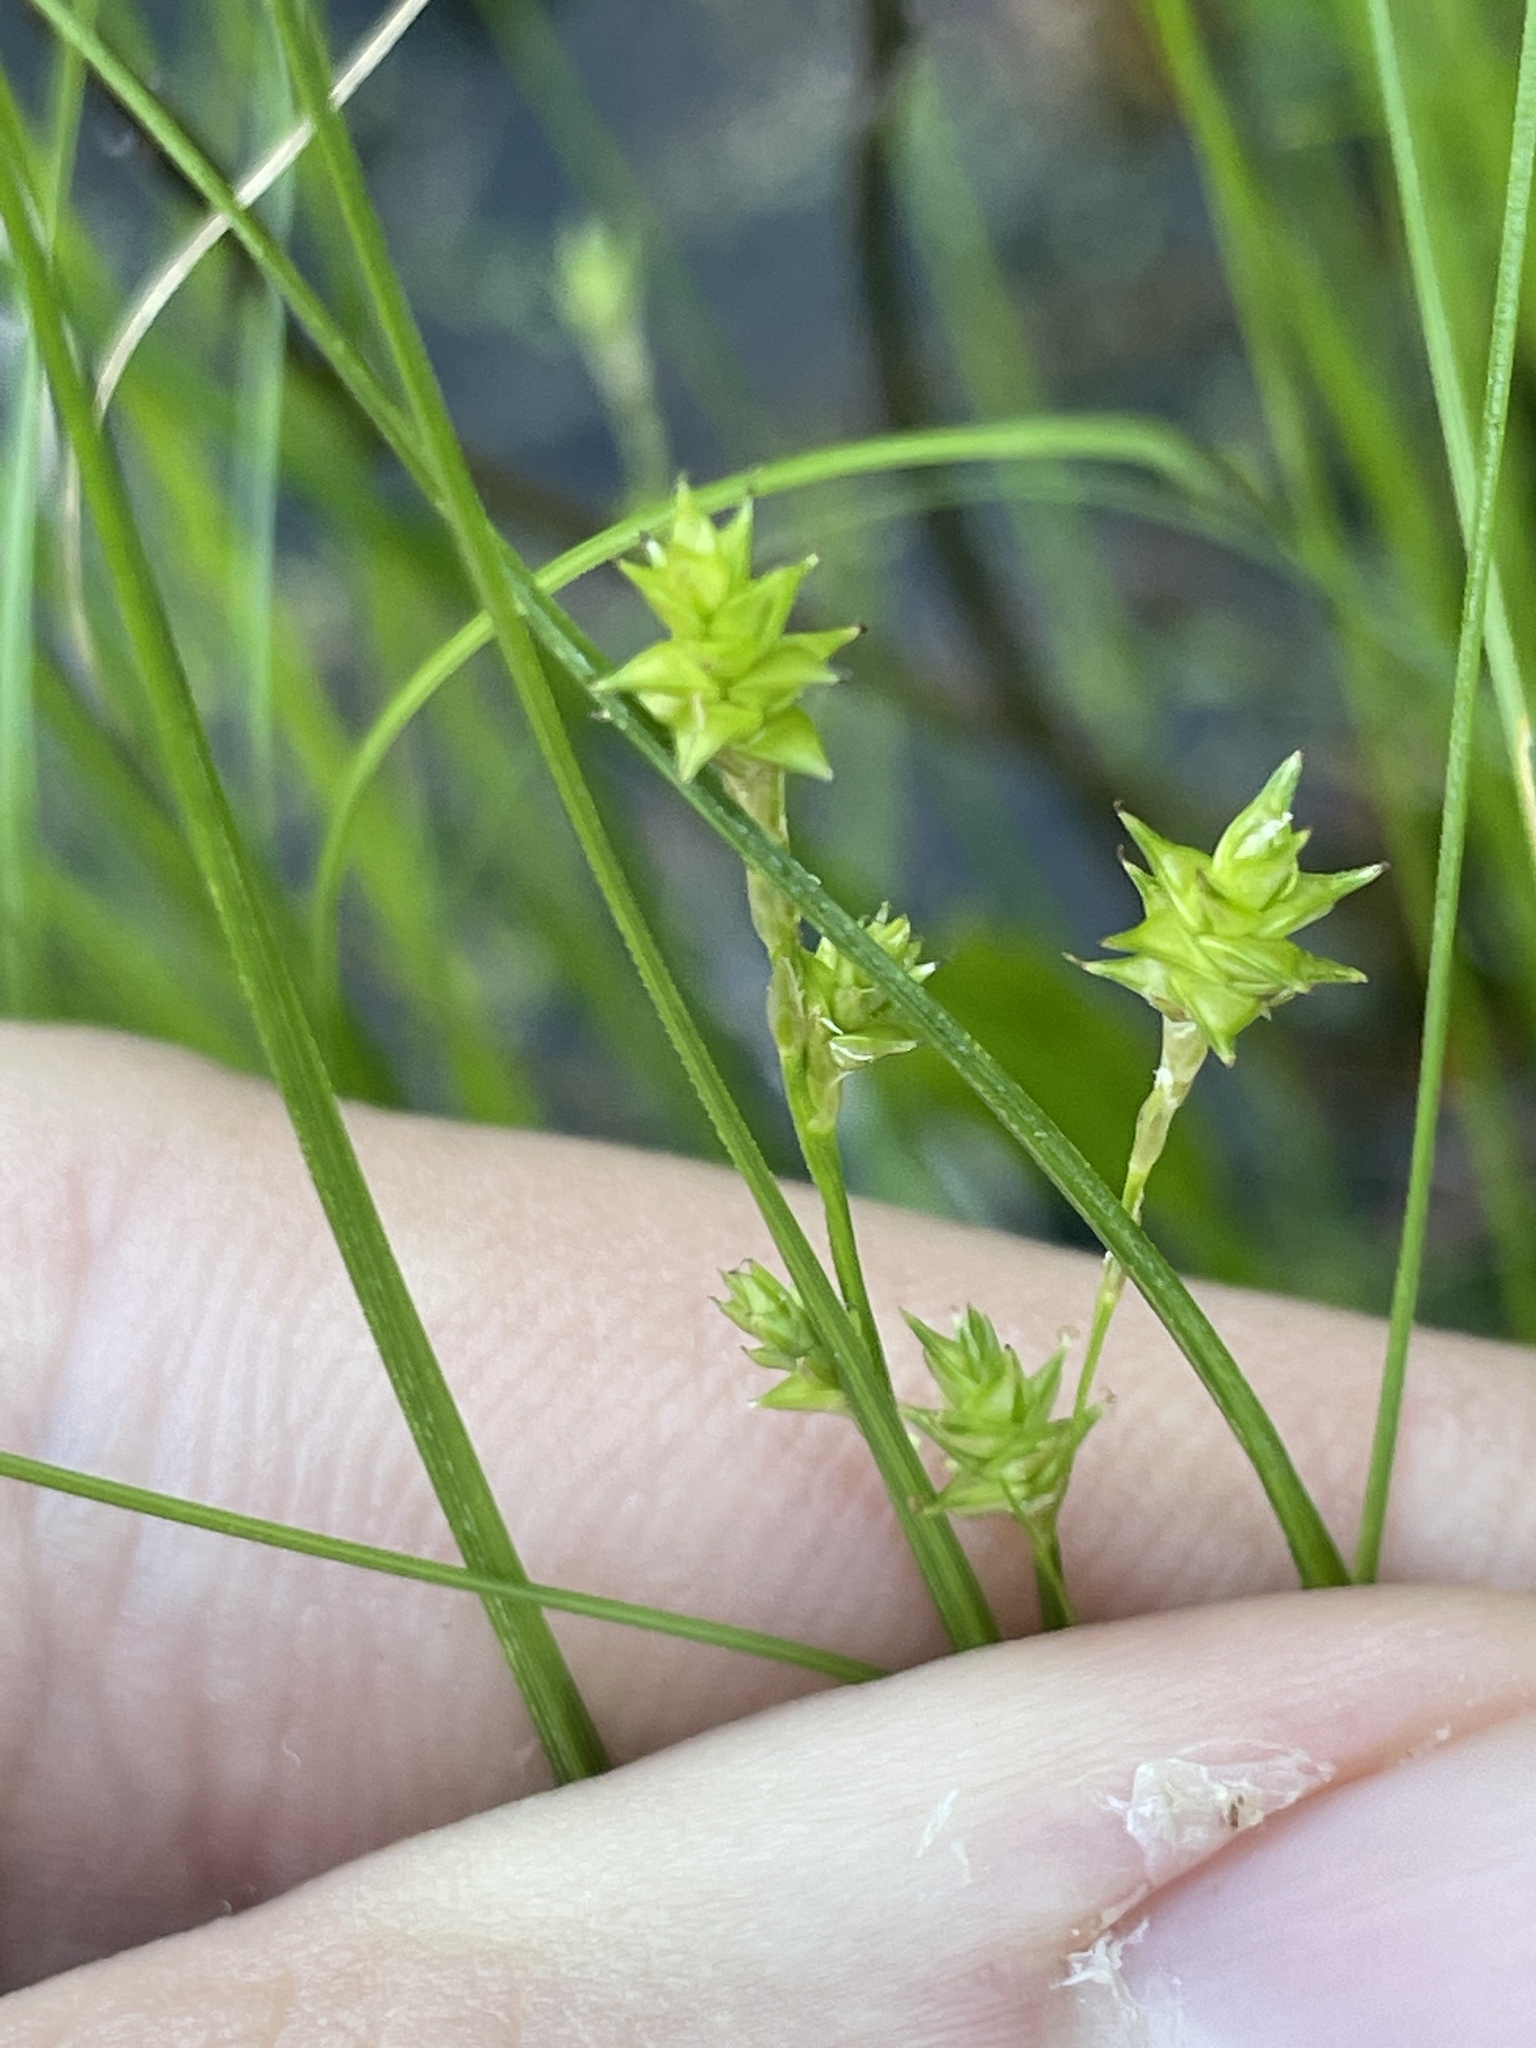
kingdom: Plantae
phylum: Tracheophyta
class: Liliopsida
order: Poales
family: Cyperaceae
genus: Carex
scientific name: Carex atlantica
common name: Atlantic sedge
